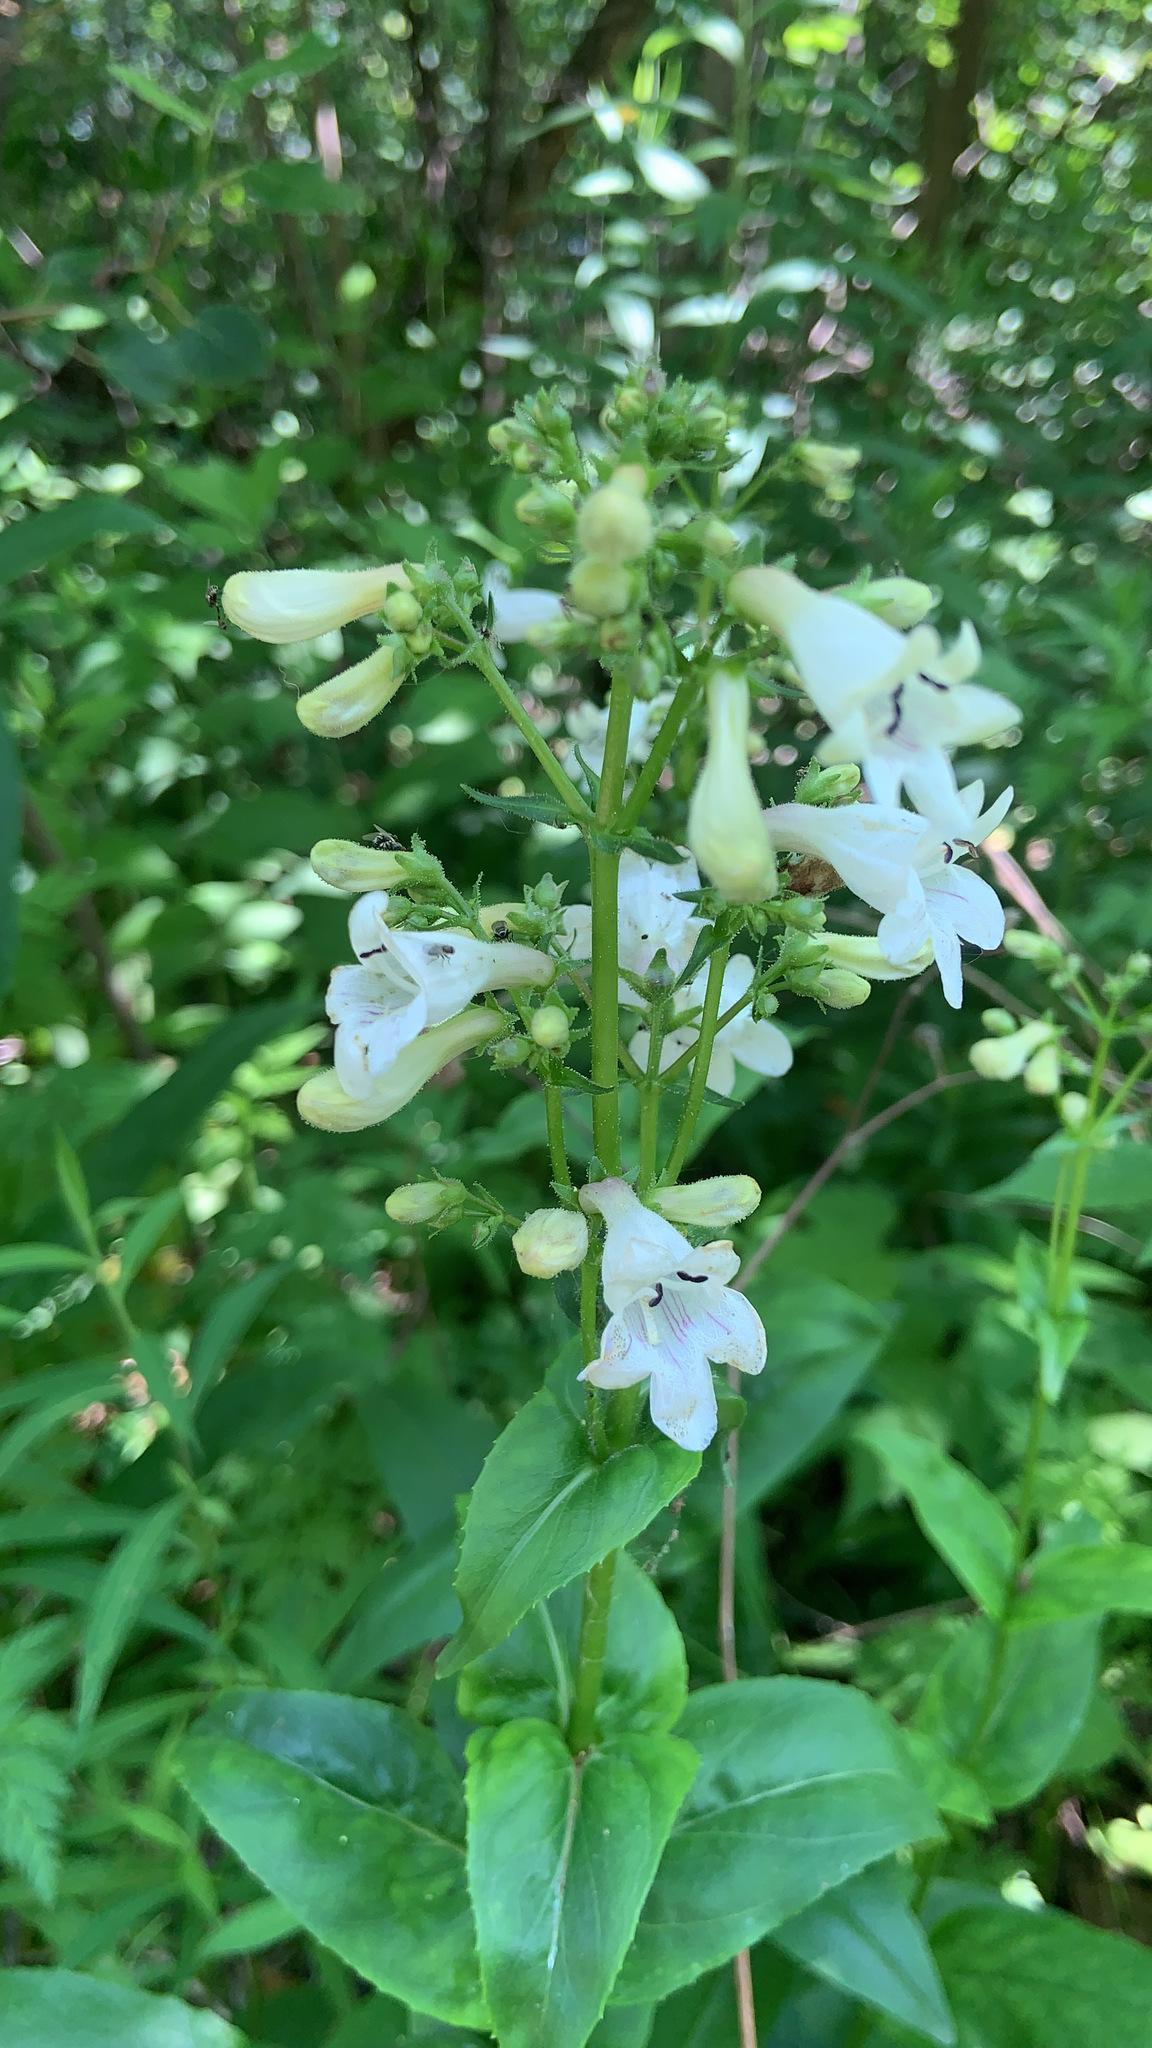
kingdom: Plantae
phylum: Tracheophyta
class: Magnoliopsida
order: Lamiales
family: Plantaginaceae
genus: Penstemon
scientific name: Penstemon digitalis
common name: Foxglove beardtongue
